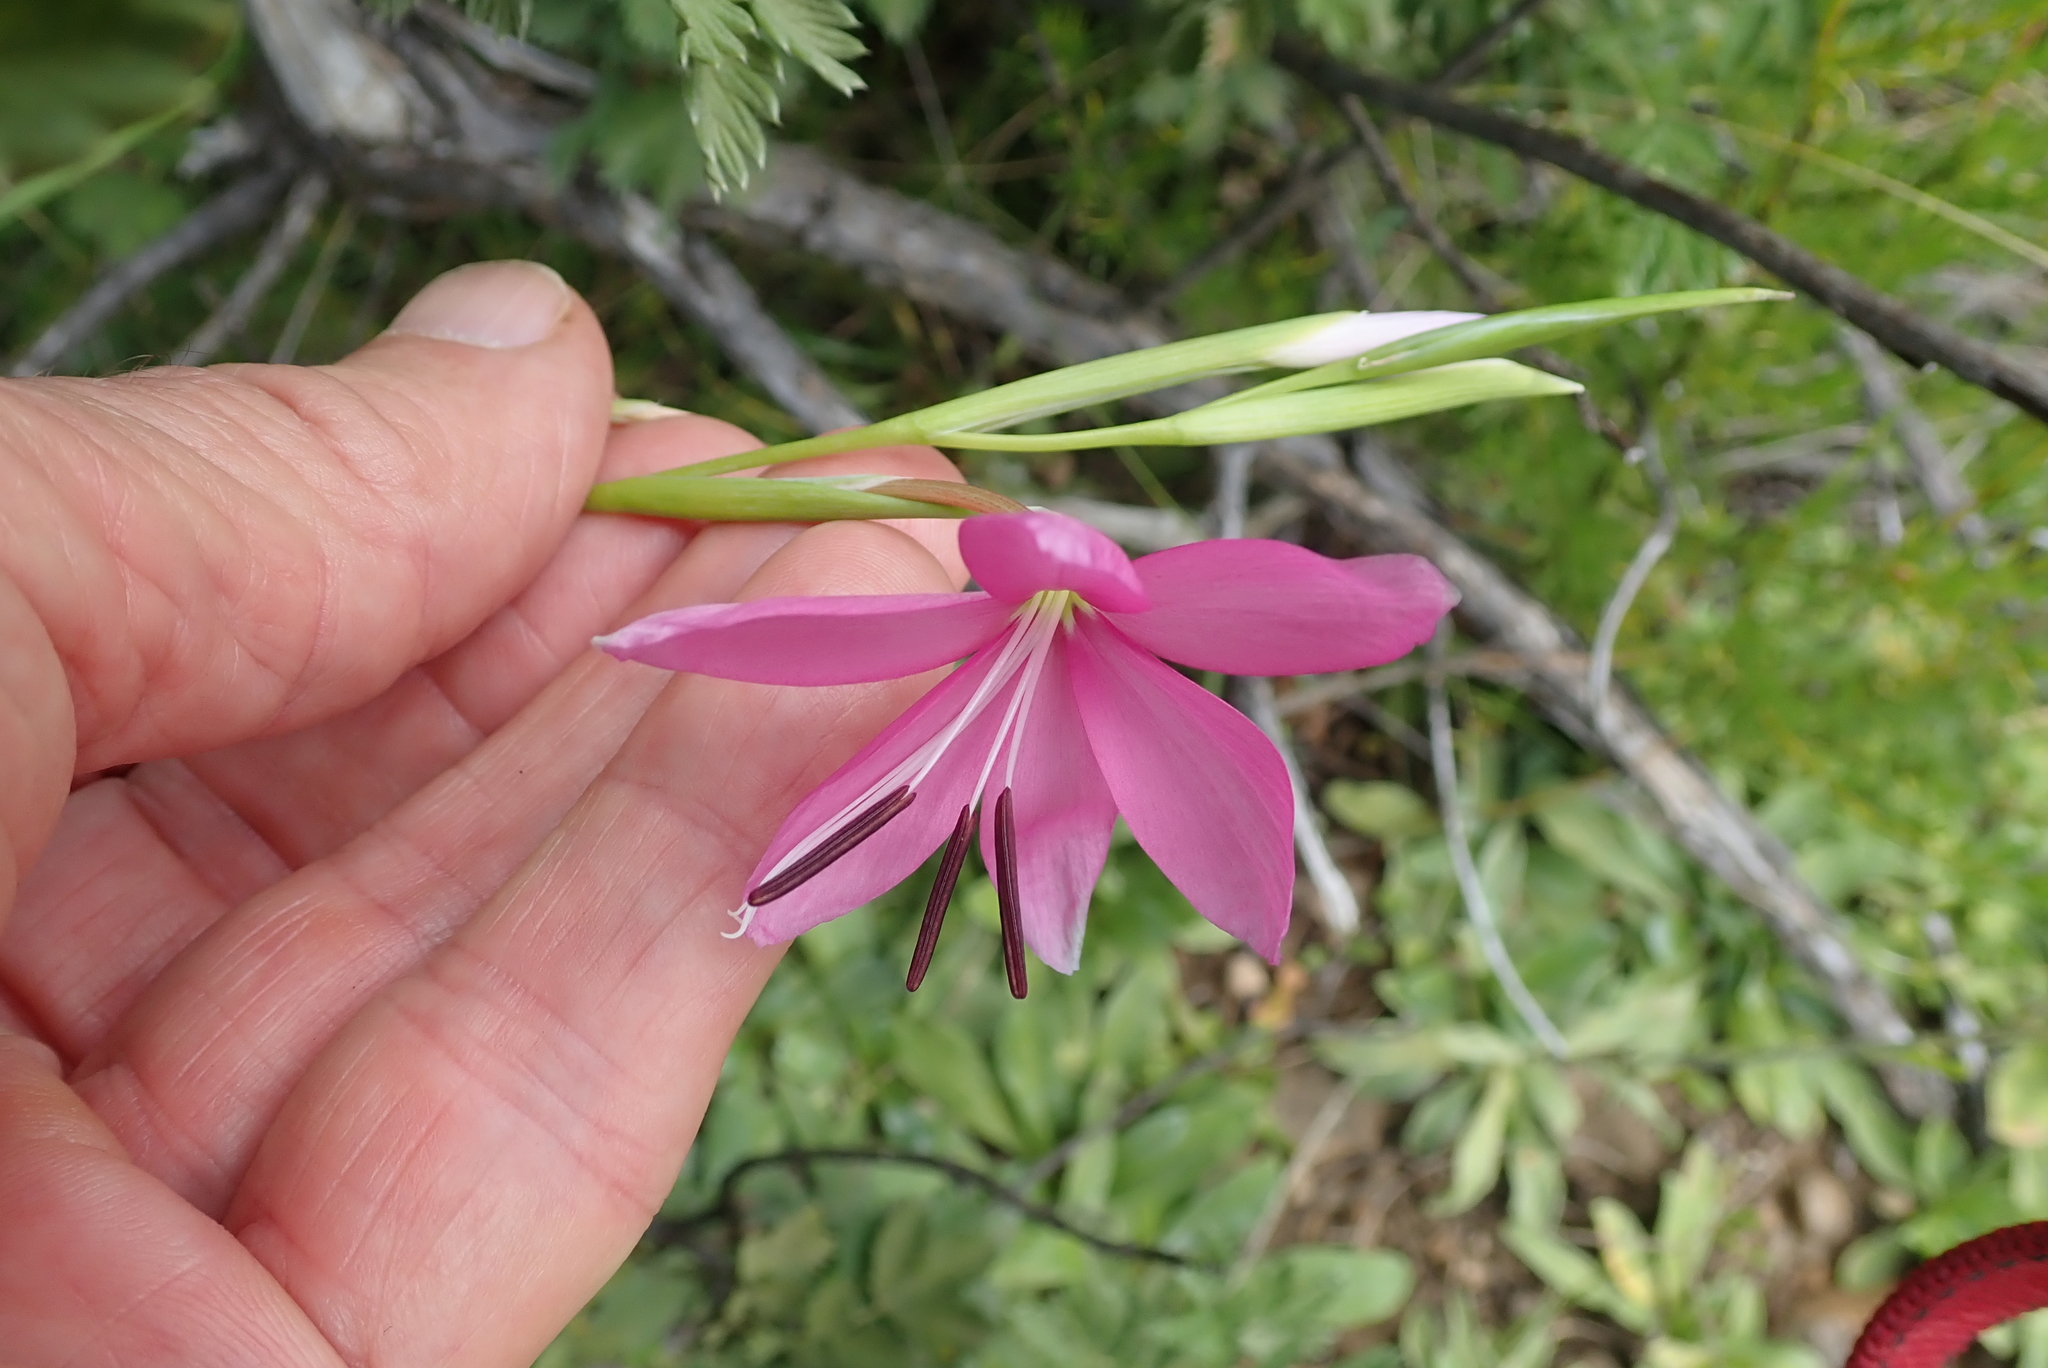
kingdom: Plantae
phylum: Tracheophyta
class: Liliopsida
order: Asparagales
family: Iridaceae
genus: Hesperantha
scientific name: Hesperantha baurii
